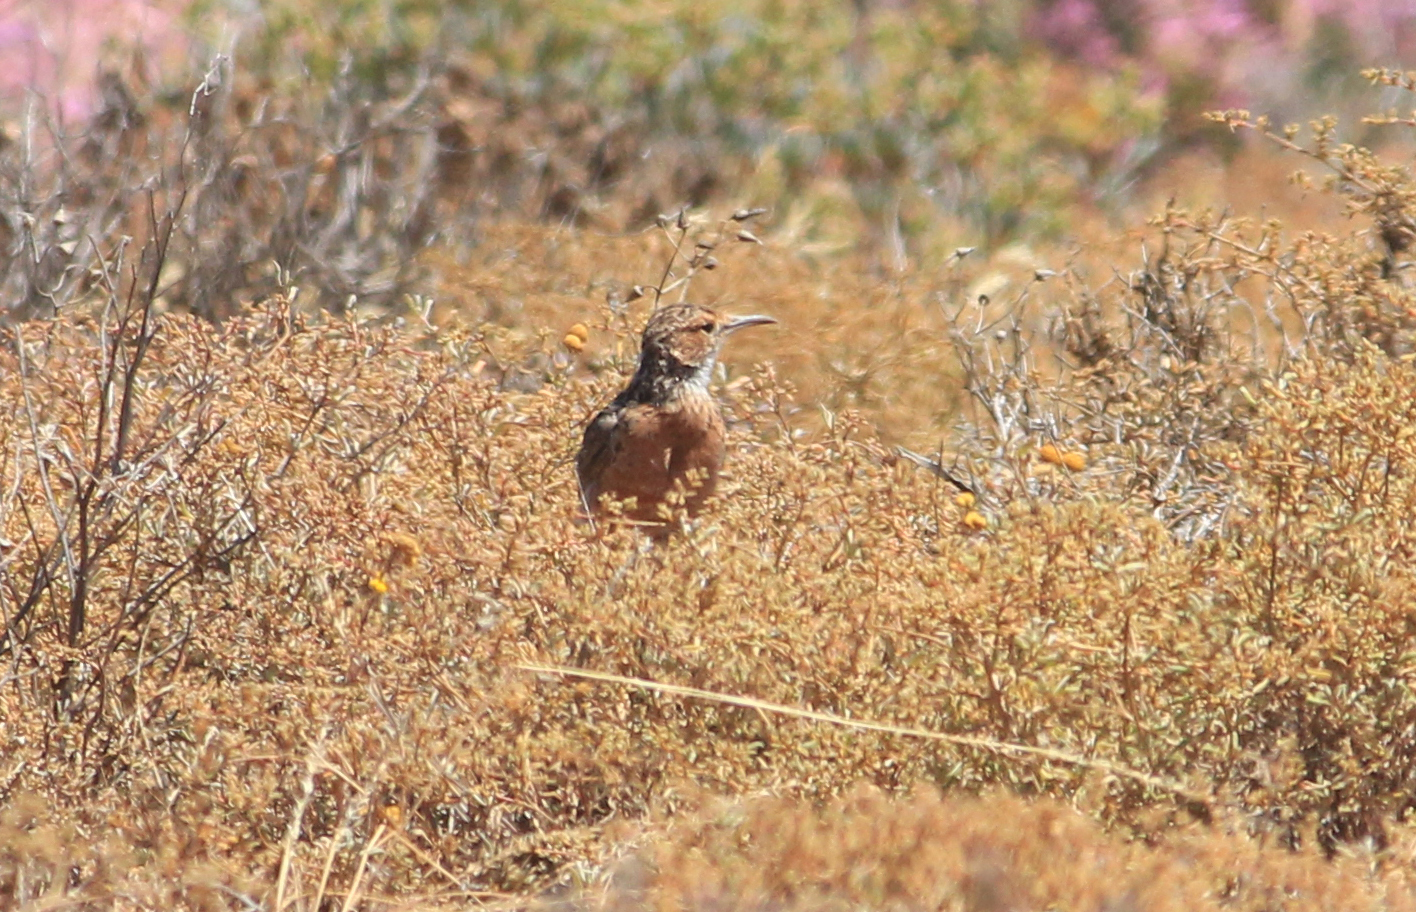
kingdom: Animalia
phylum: Chordata
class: Aves
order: Passeriformes
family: Alaudidae
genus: Chersomanes
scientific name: Chersomanes albofasciata
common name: Spike-heeled lark
